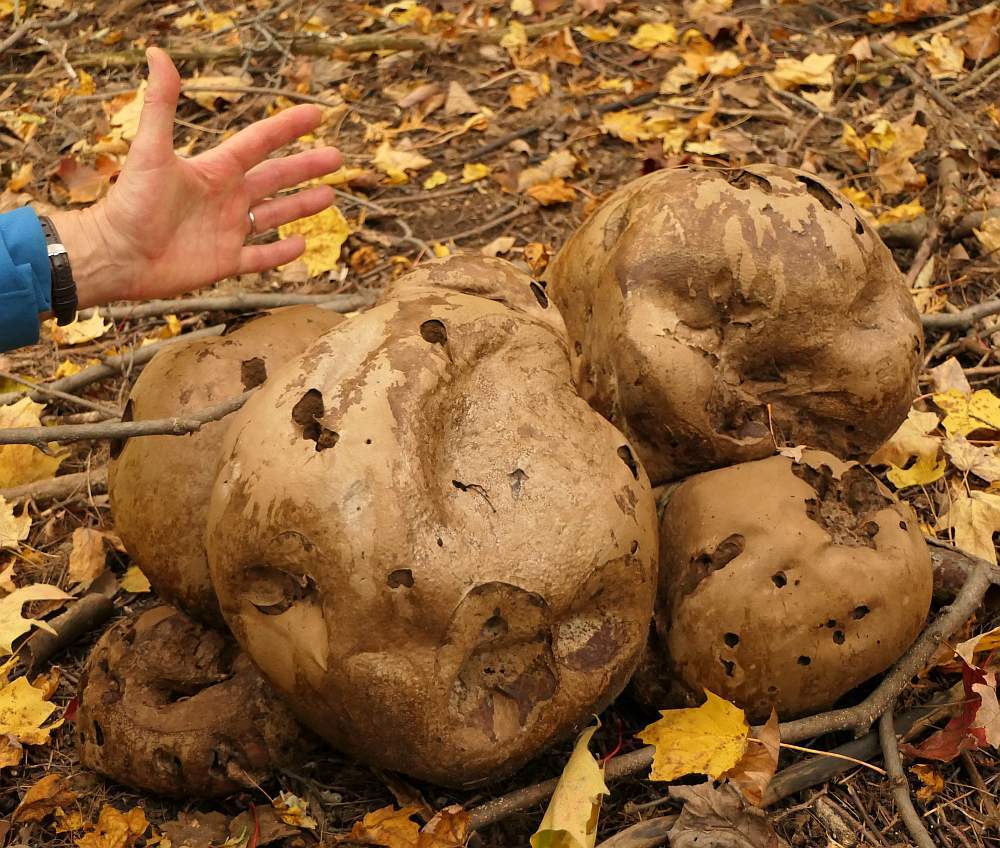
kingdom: Fungi
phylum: Basidiomycota
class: Agaricomycetes
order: Agaricales
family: Lycoperdaceae
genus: Calvatia
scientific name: Calvatia gigantea
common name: Giant puffball
